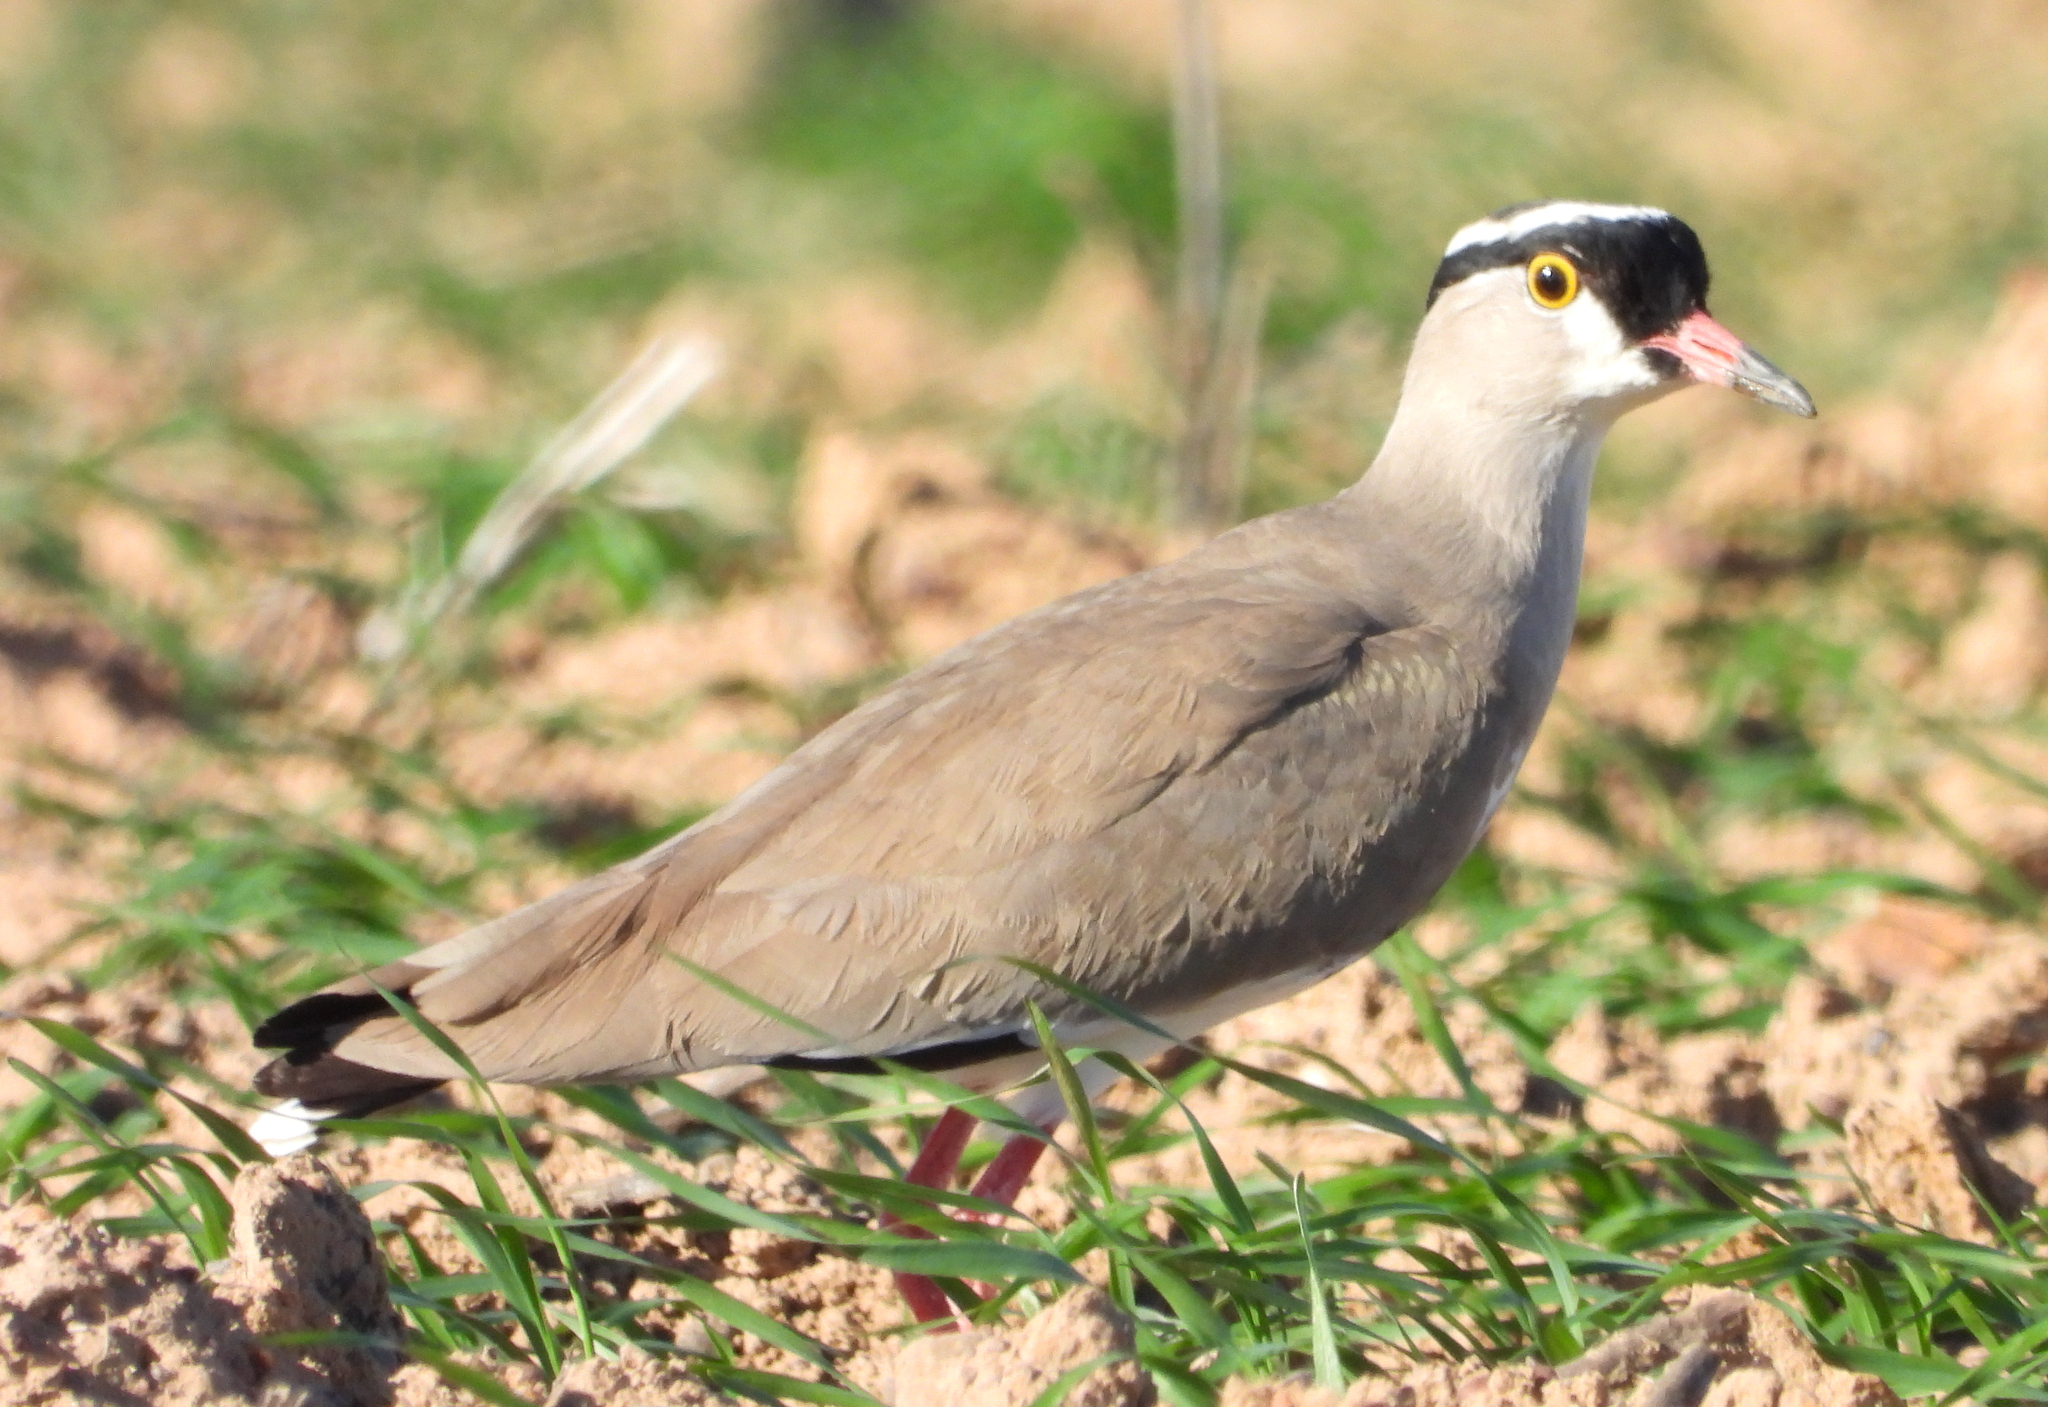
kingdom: Animalia
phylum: Chordata
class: Aves
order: Charadriiformes
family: Charadriidae
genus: Vanellus
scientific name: Vanellus coronatus
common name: Crowned lapwing
